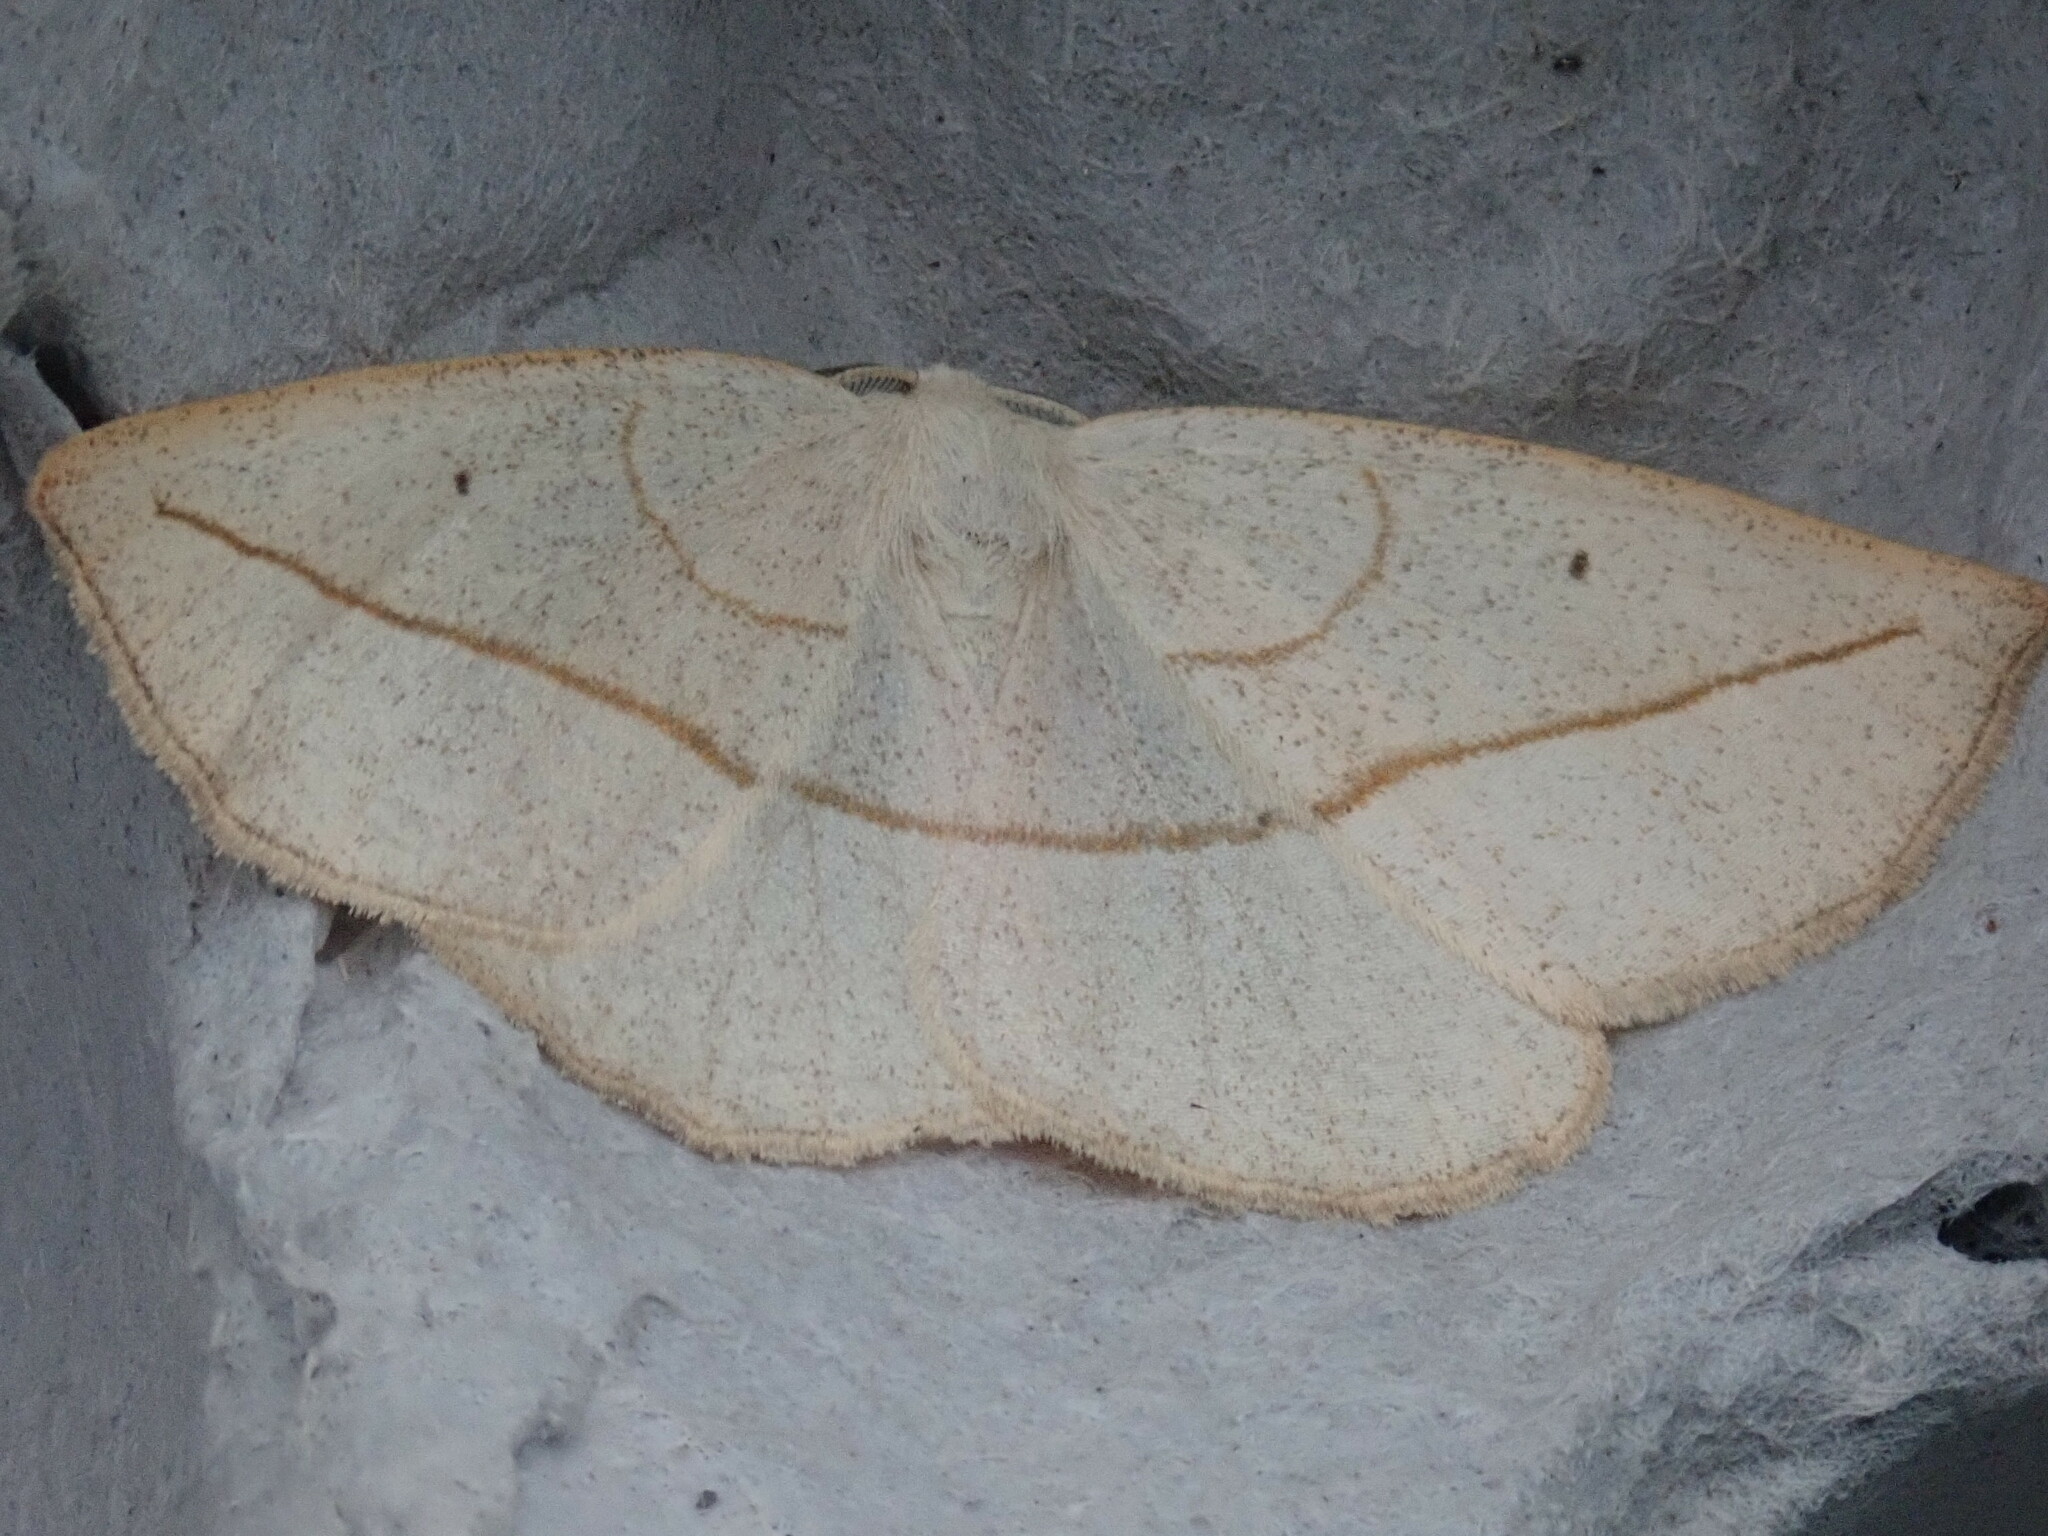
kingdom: Animalia
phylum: Arthropoda
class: Insecta
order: Lepidoptera
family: Geometridae
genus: Eusarca
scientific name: Eusarca confusaria
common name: Confused eusarca
